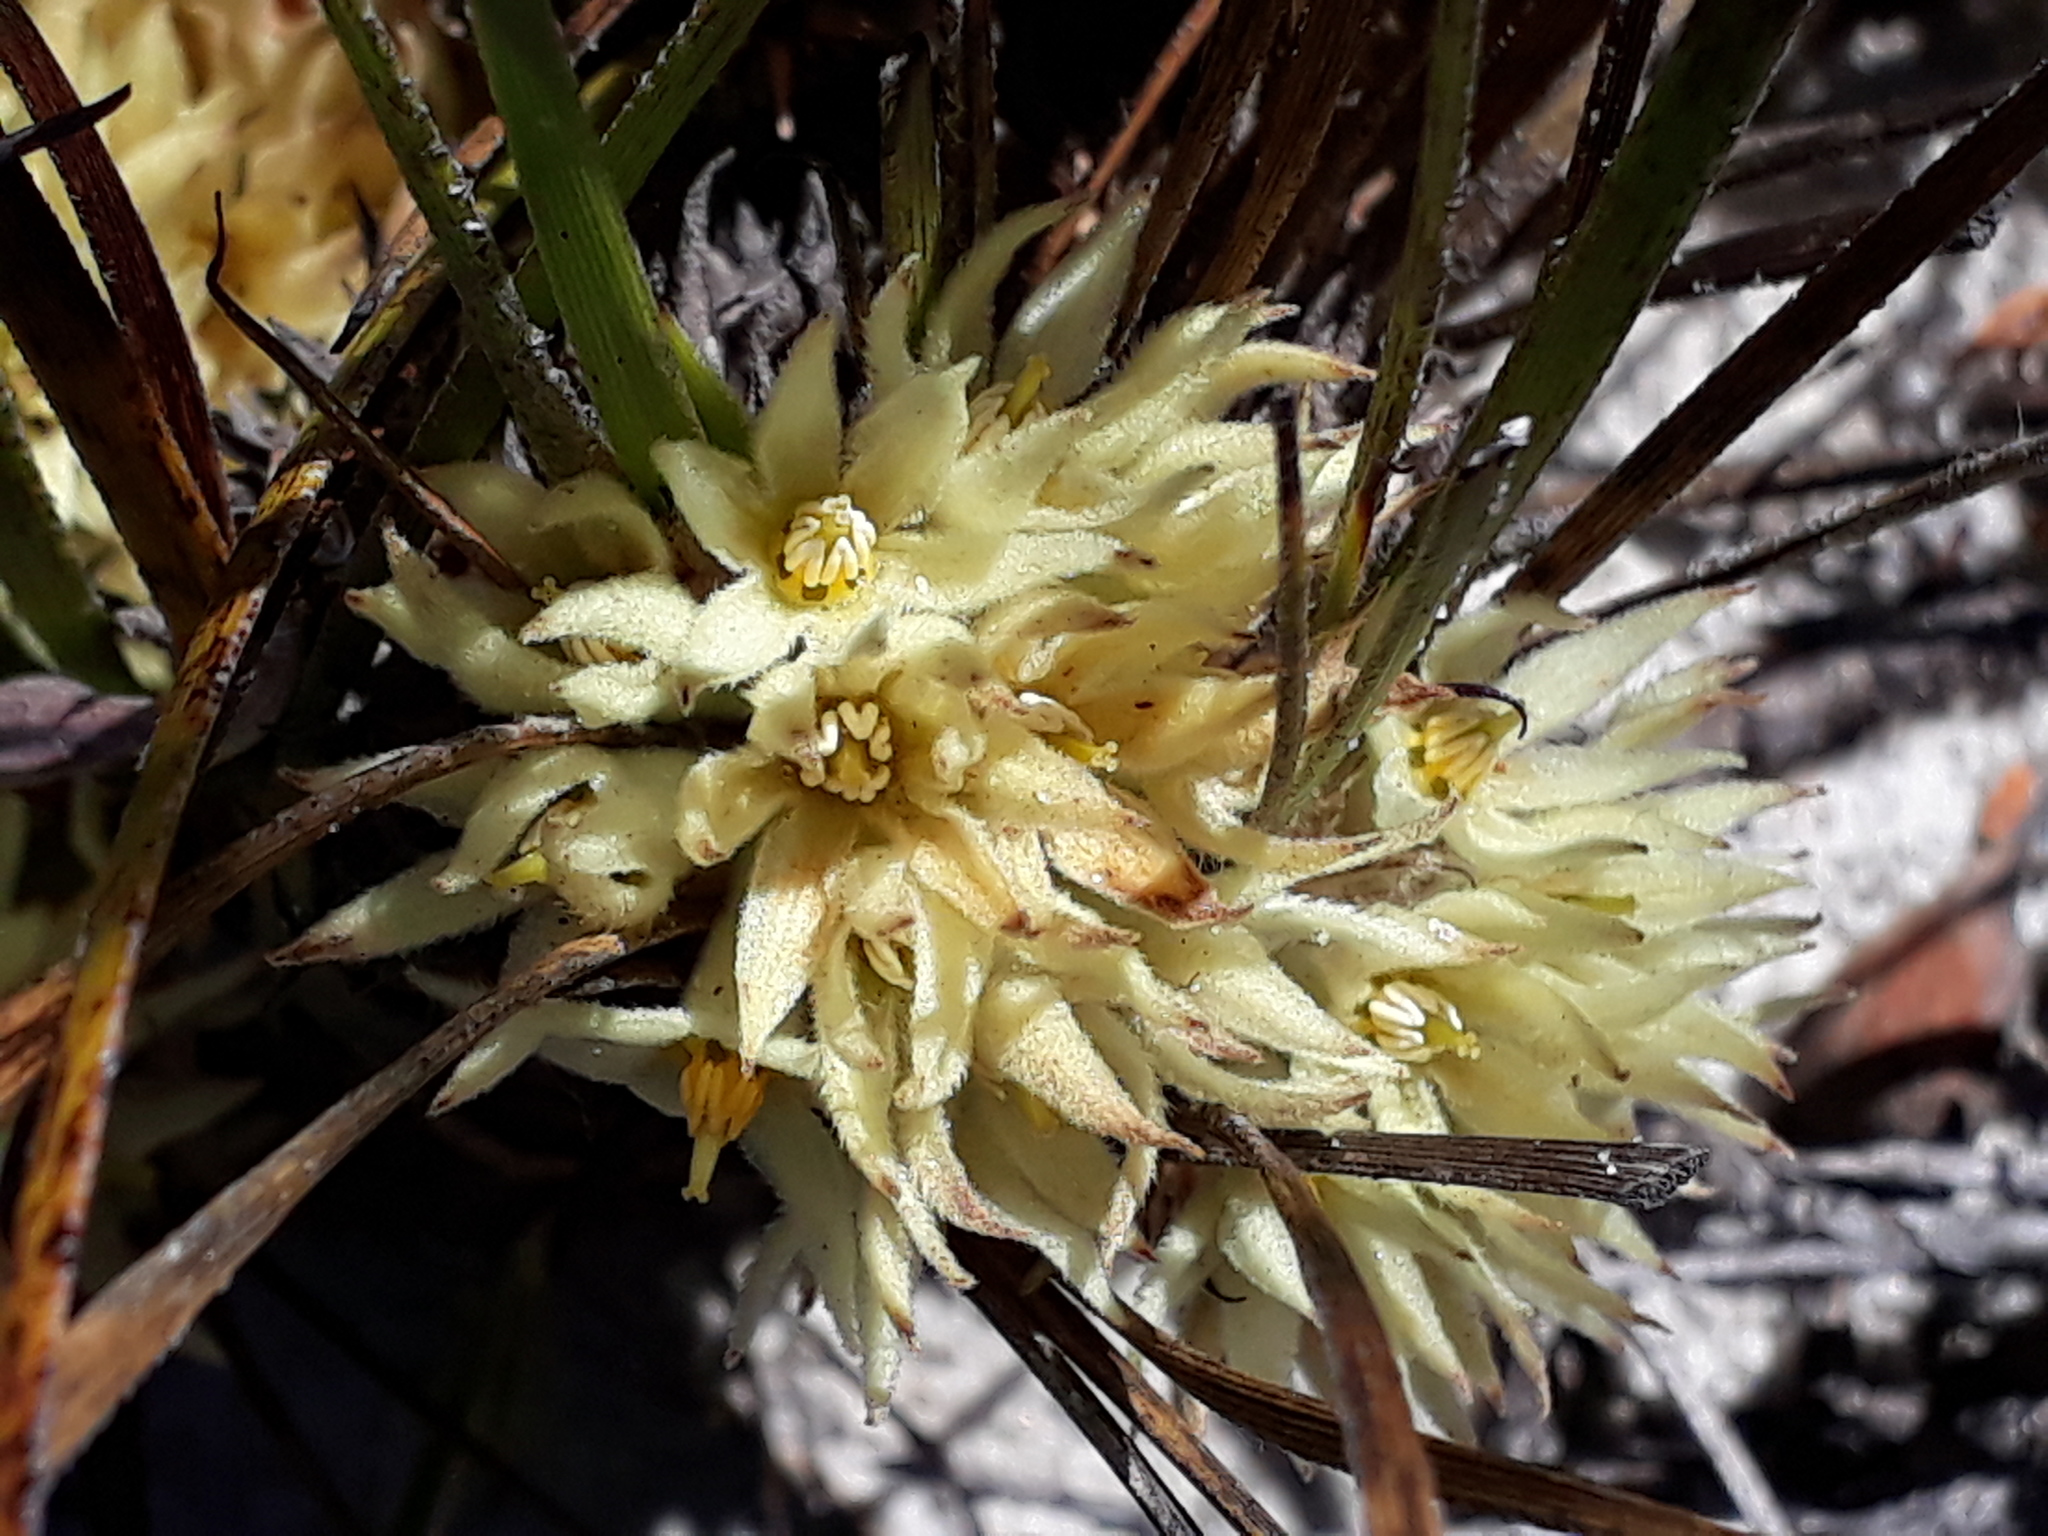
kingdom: Plantae
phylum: Tracheophyta
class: Liliopsida
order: Commelinales
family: Haemodoraceae
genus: Conostylis
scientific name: Conostylis breviscapa
